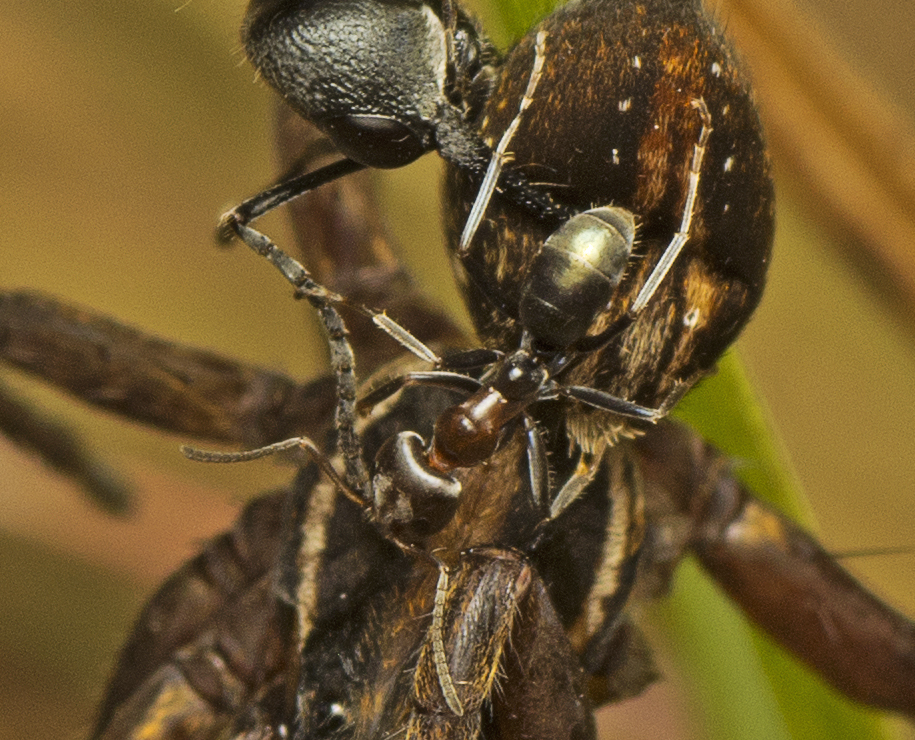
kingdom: Animalia
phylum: Arthropoda
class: Insecta
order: Hymenoptera
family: Formicidae
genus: Iridomyrmex
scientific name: Iridomyrmex rufoniger
